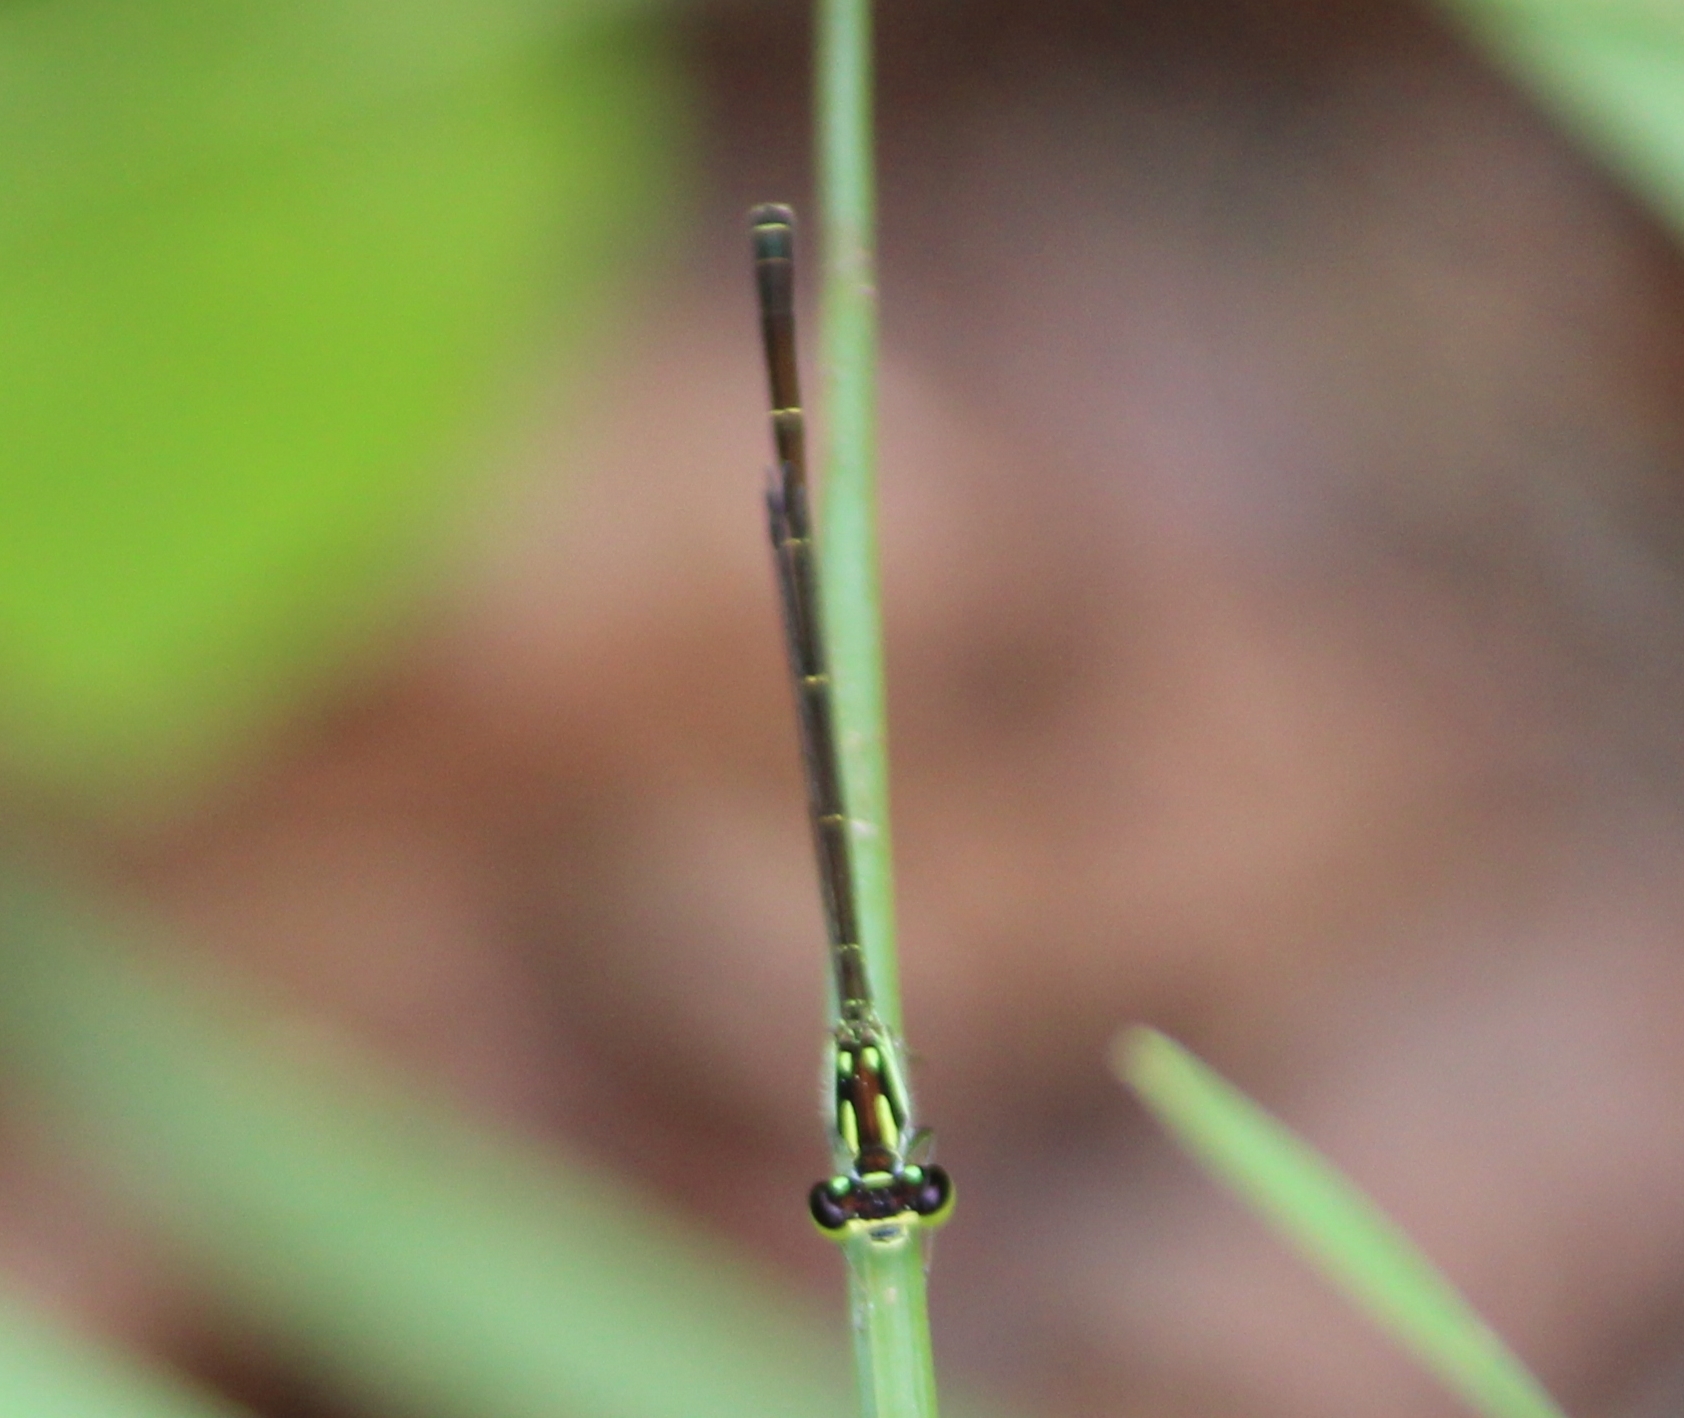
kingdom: Animalia
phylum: Arthropoda
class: Insecta
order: Odonata
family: Coenagrionidae
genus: Ischnura
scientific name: Ischnura posita
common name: Fragile forktail
